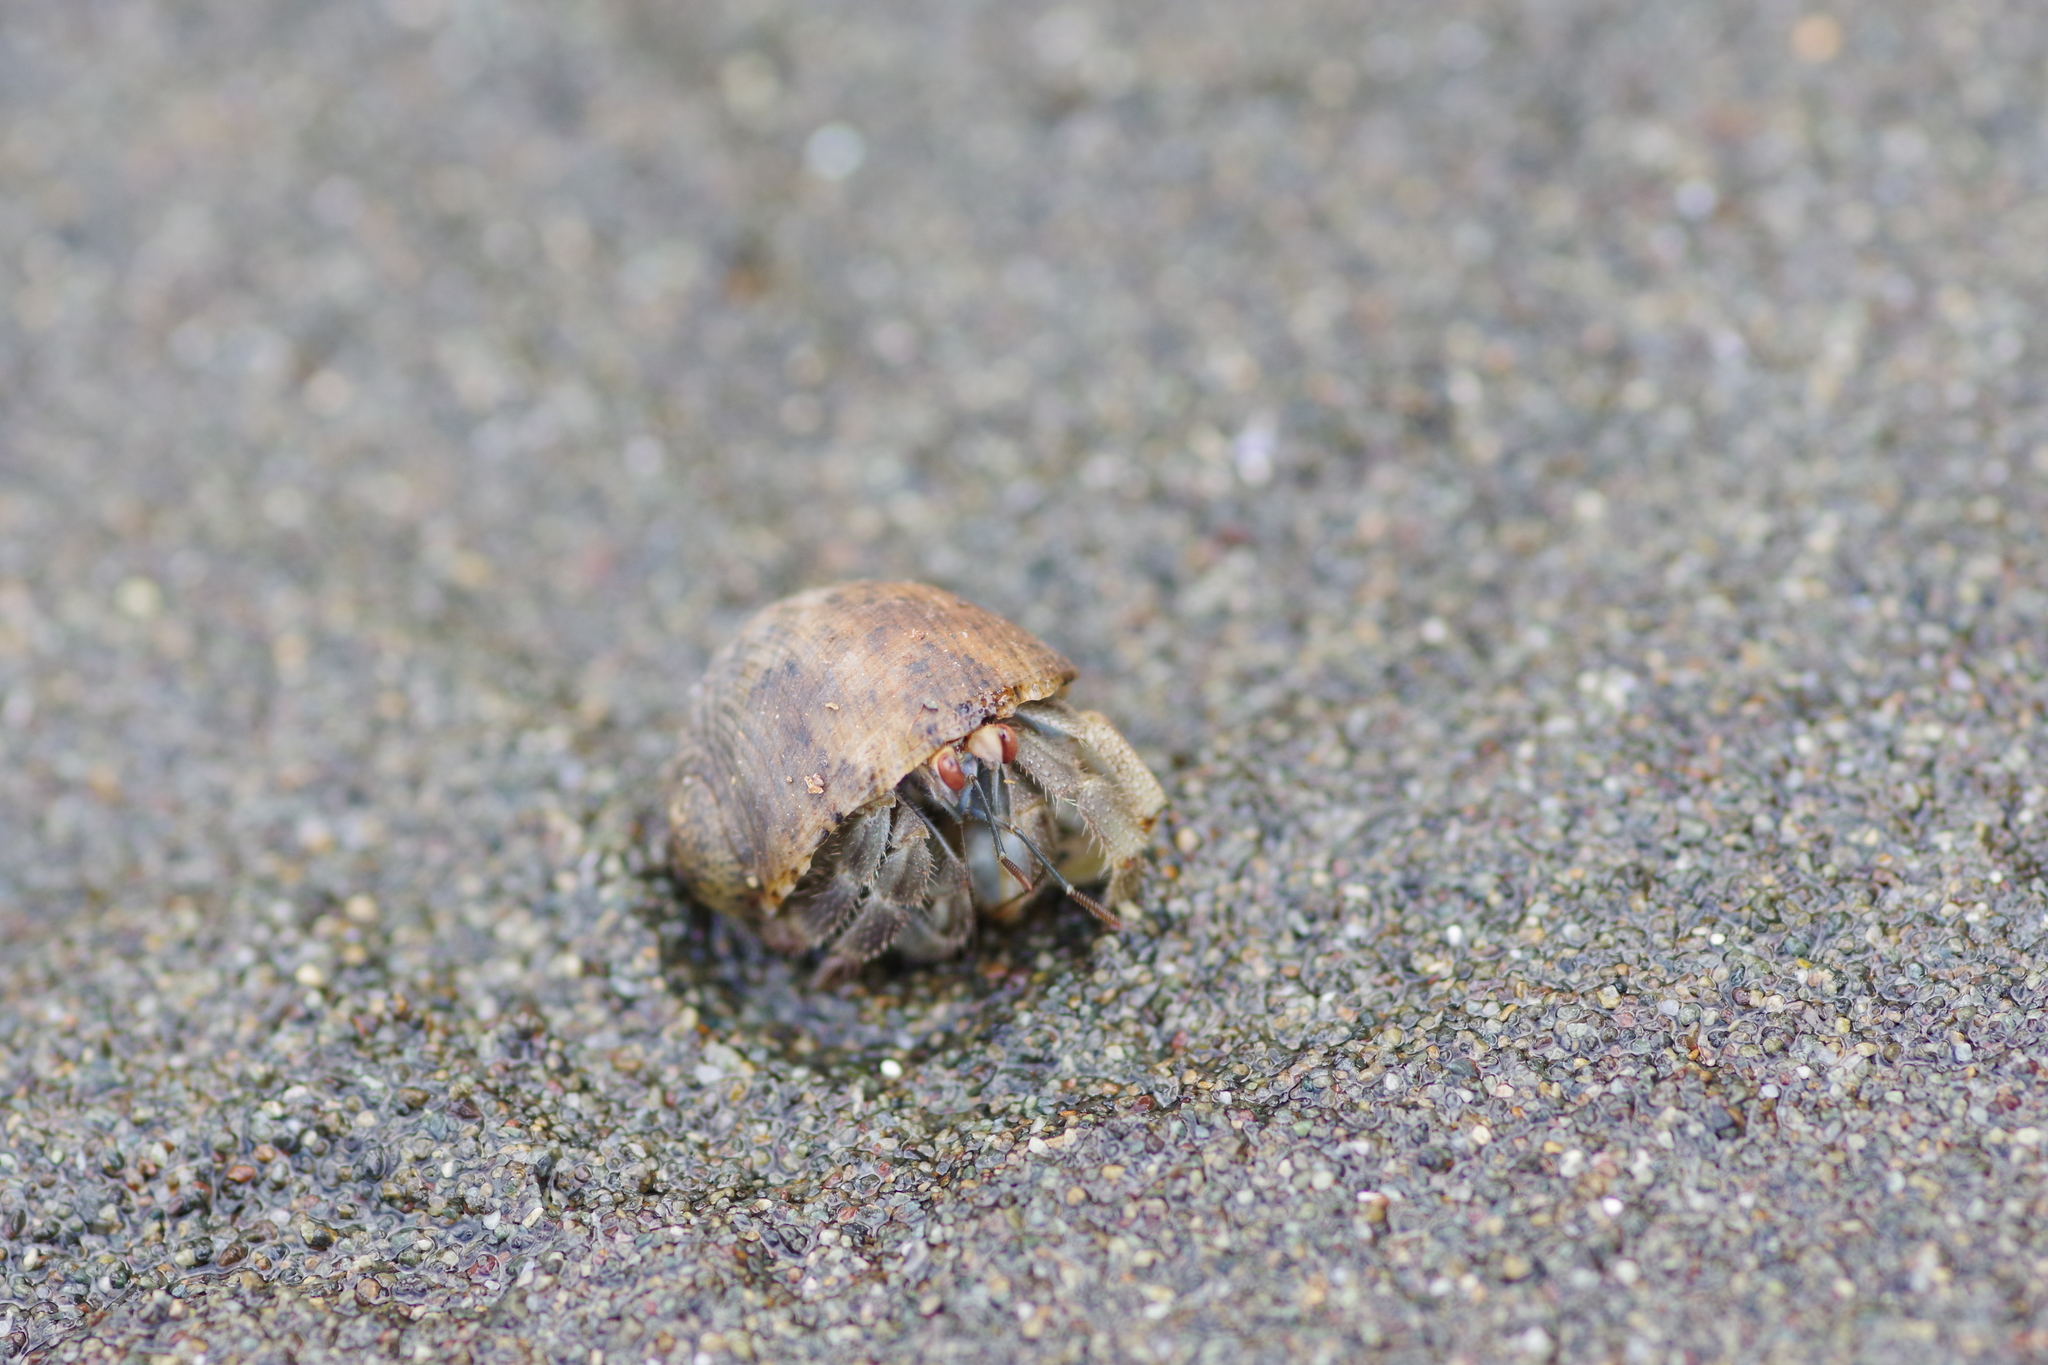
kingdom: Animalia
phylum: Arthropoda
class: Malacostraca
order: Decapoda
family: Coenobitidae
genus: Coenobita
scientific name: Coenobita compressus
